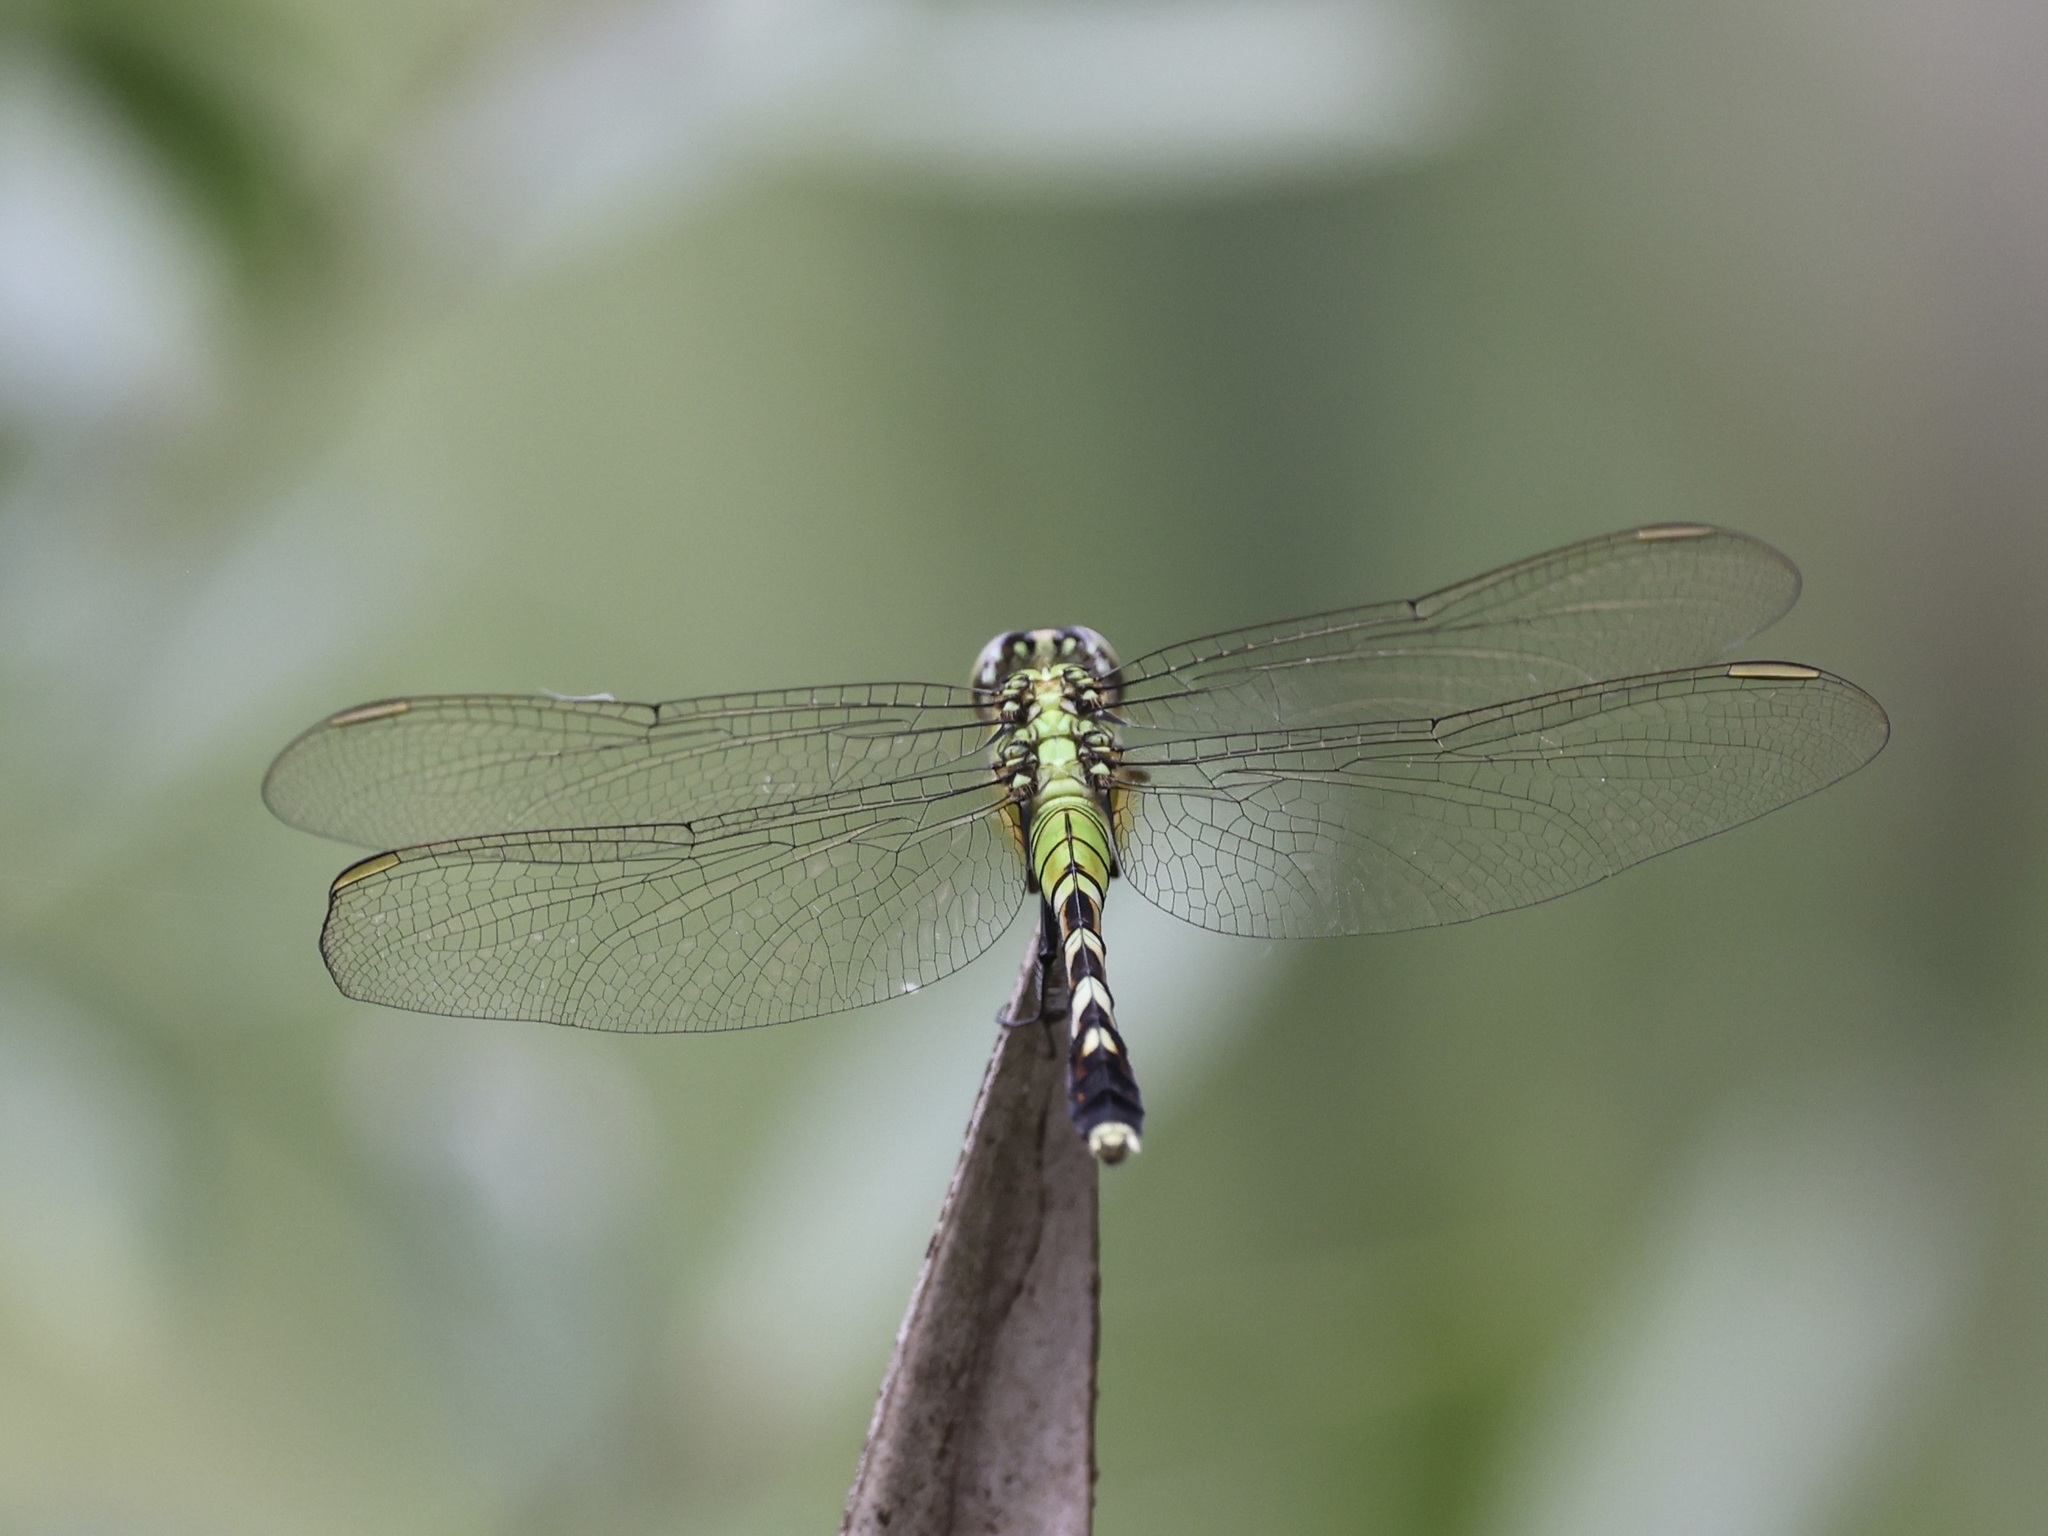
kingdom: Animalia
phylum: Arthropoda
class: Insecta
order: Odonata
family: Libellulidae
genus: Erythemis
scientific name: Erythemis simplicicollis
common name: Eastern pondhawk
